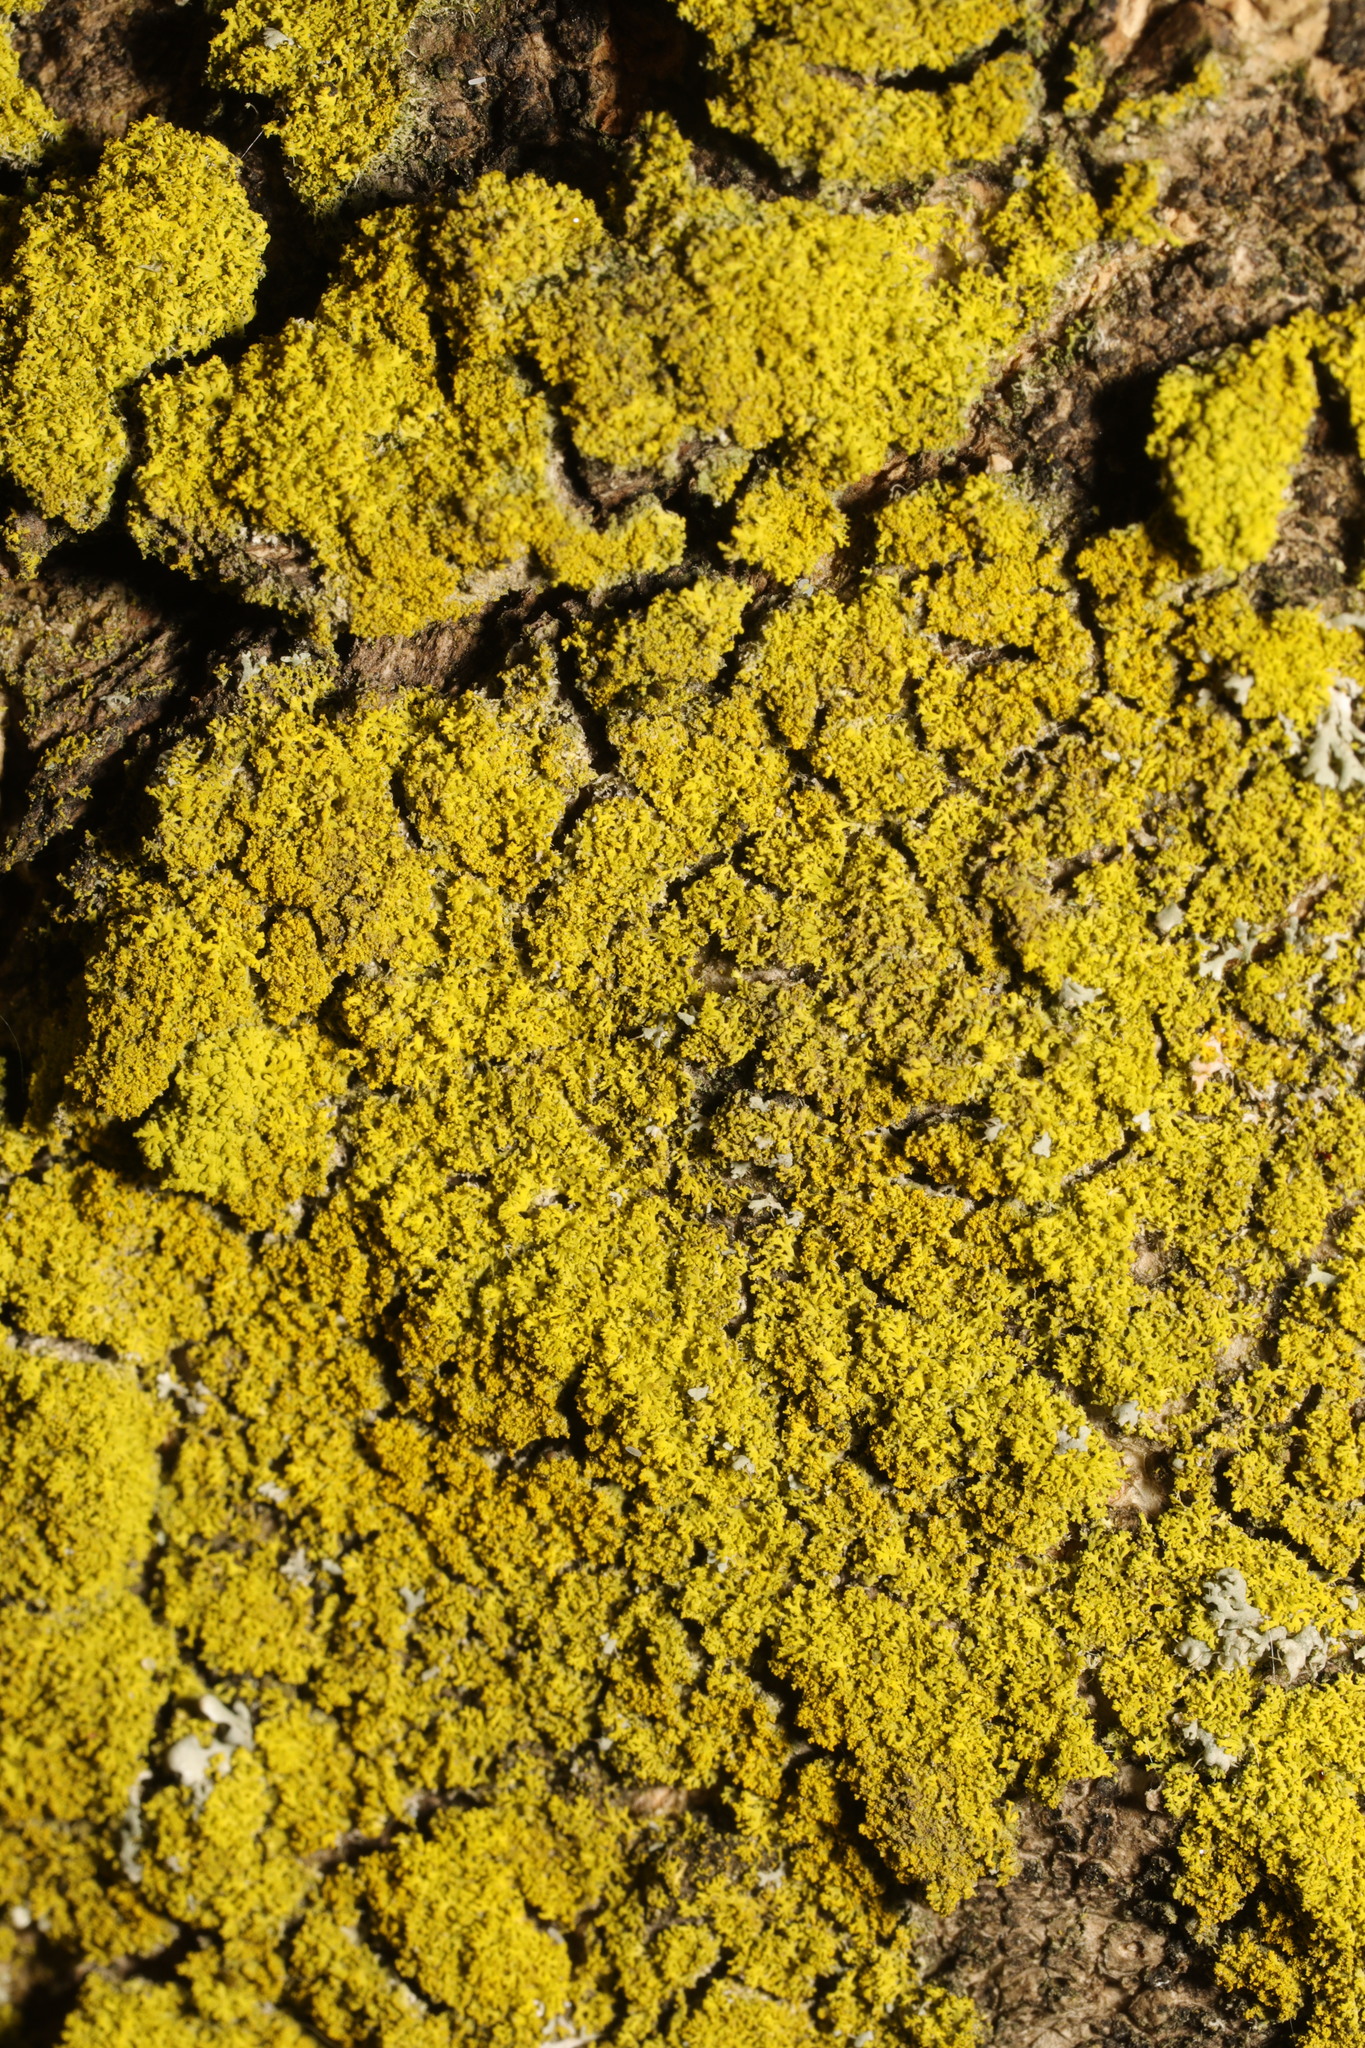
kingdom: Fungi
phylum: Ascomycota
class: Candelariomycetes
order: Candelariales
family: Candelariaceae
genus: Candelaria
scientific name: Candelaria concolor
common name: Candleflame lichen
